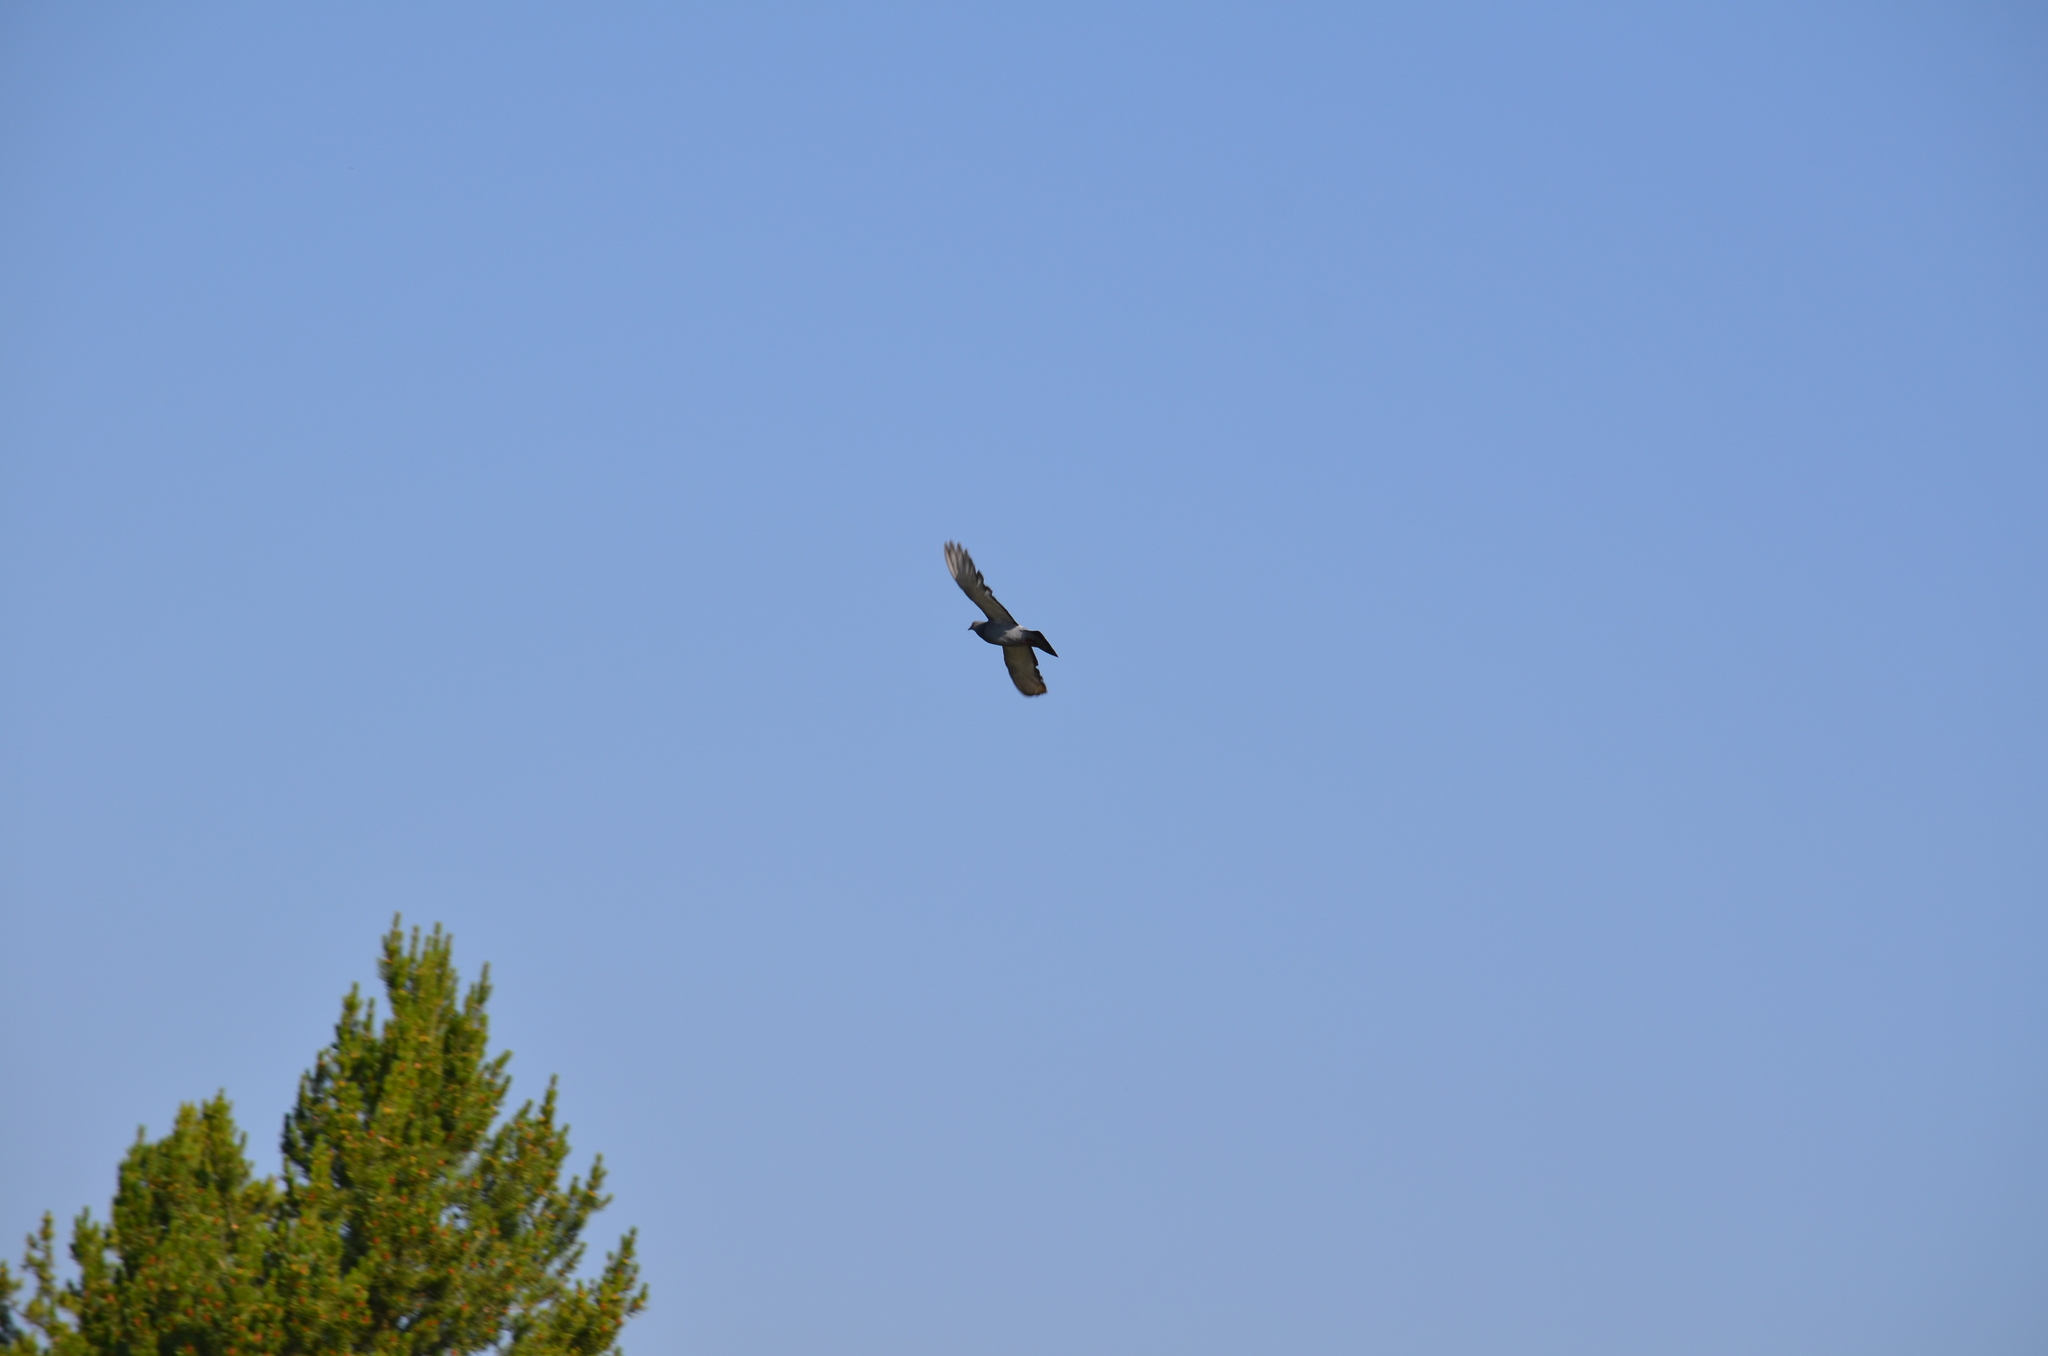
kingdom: Animalia
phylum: Chordata
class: Aves
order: Columbiformes
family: Columbidae
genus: Columba
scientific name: Columba livia
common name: Rock pigeon
